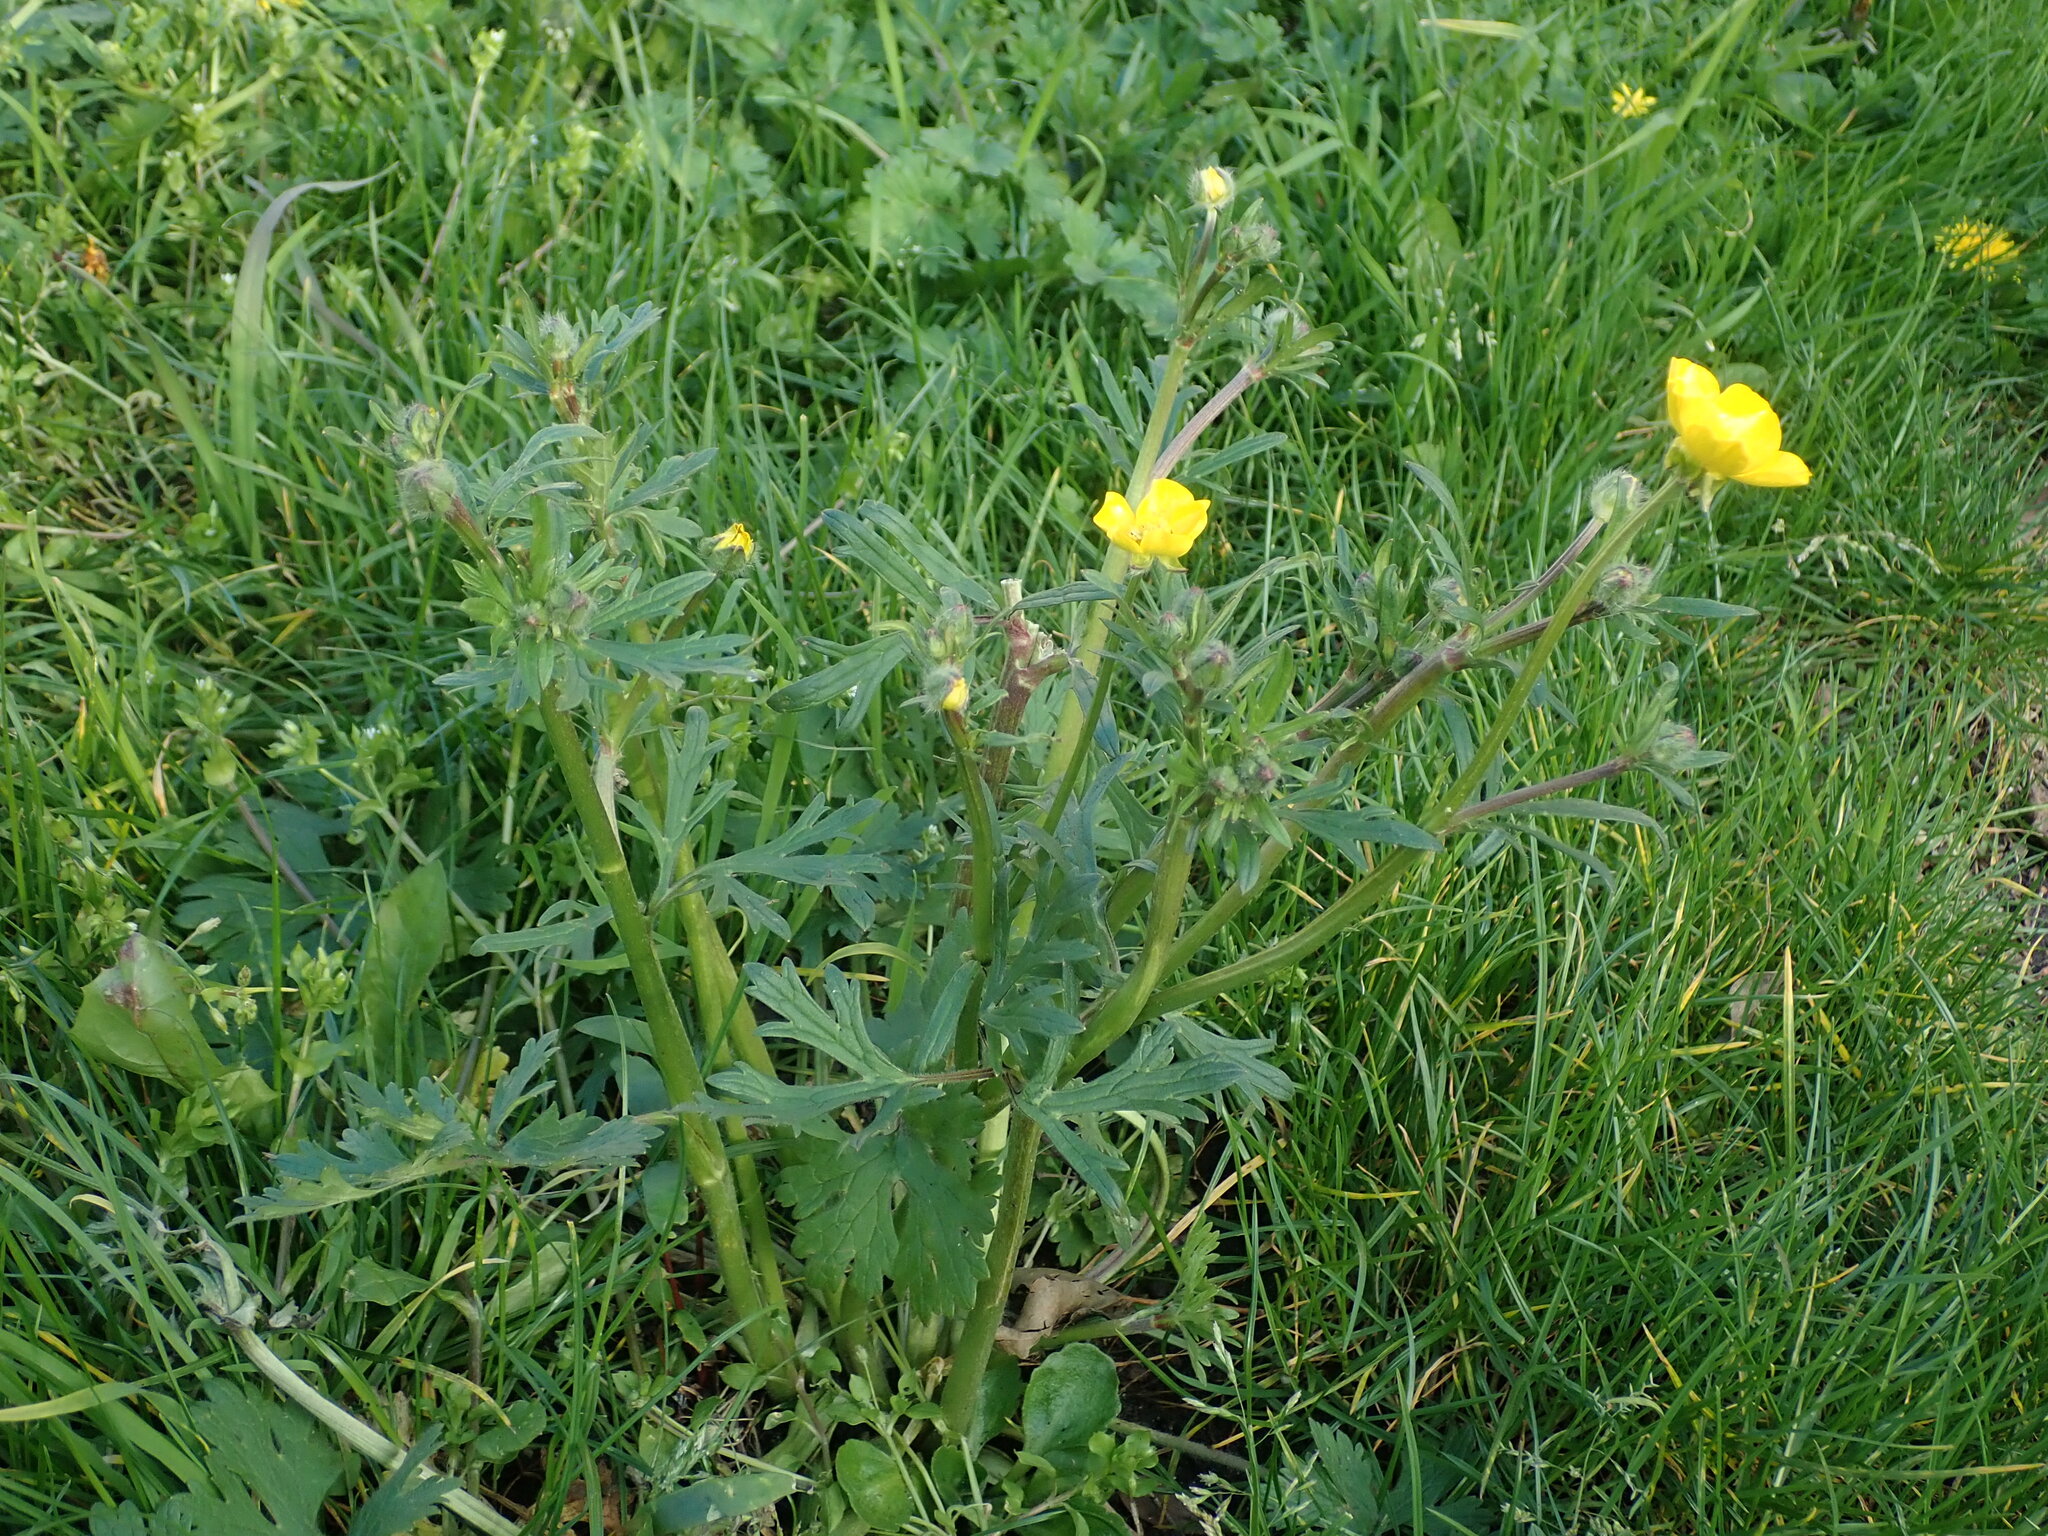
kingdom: Plantae
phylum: Tracheophyta
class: Magnoliopsida
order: Ranunculales
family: Ranunculaceae
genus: Ranunculus
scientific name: Ranunculus bulbosus
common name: Bulbous buttercup
